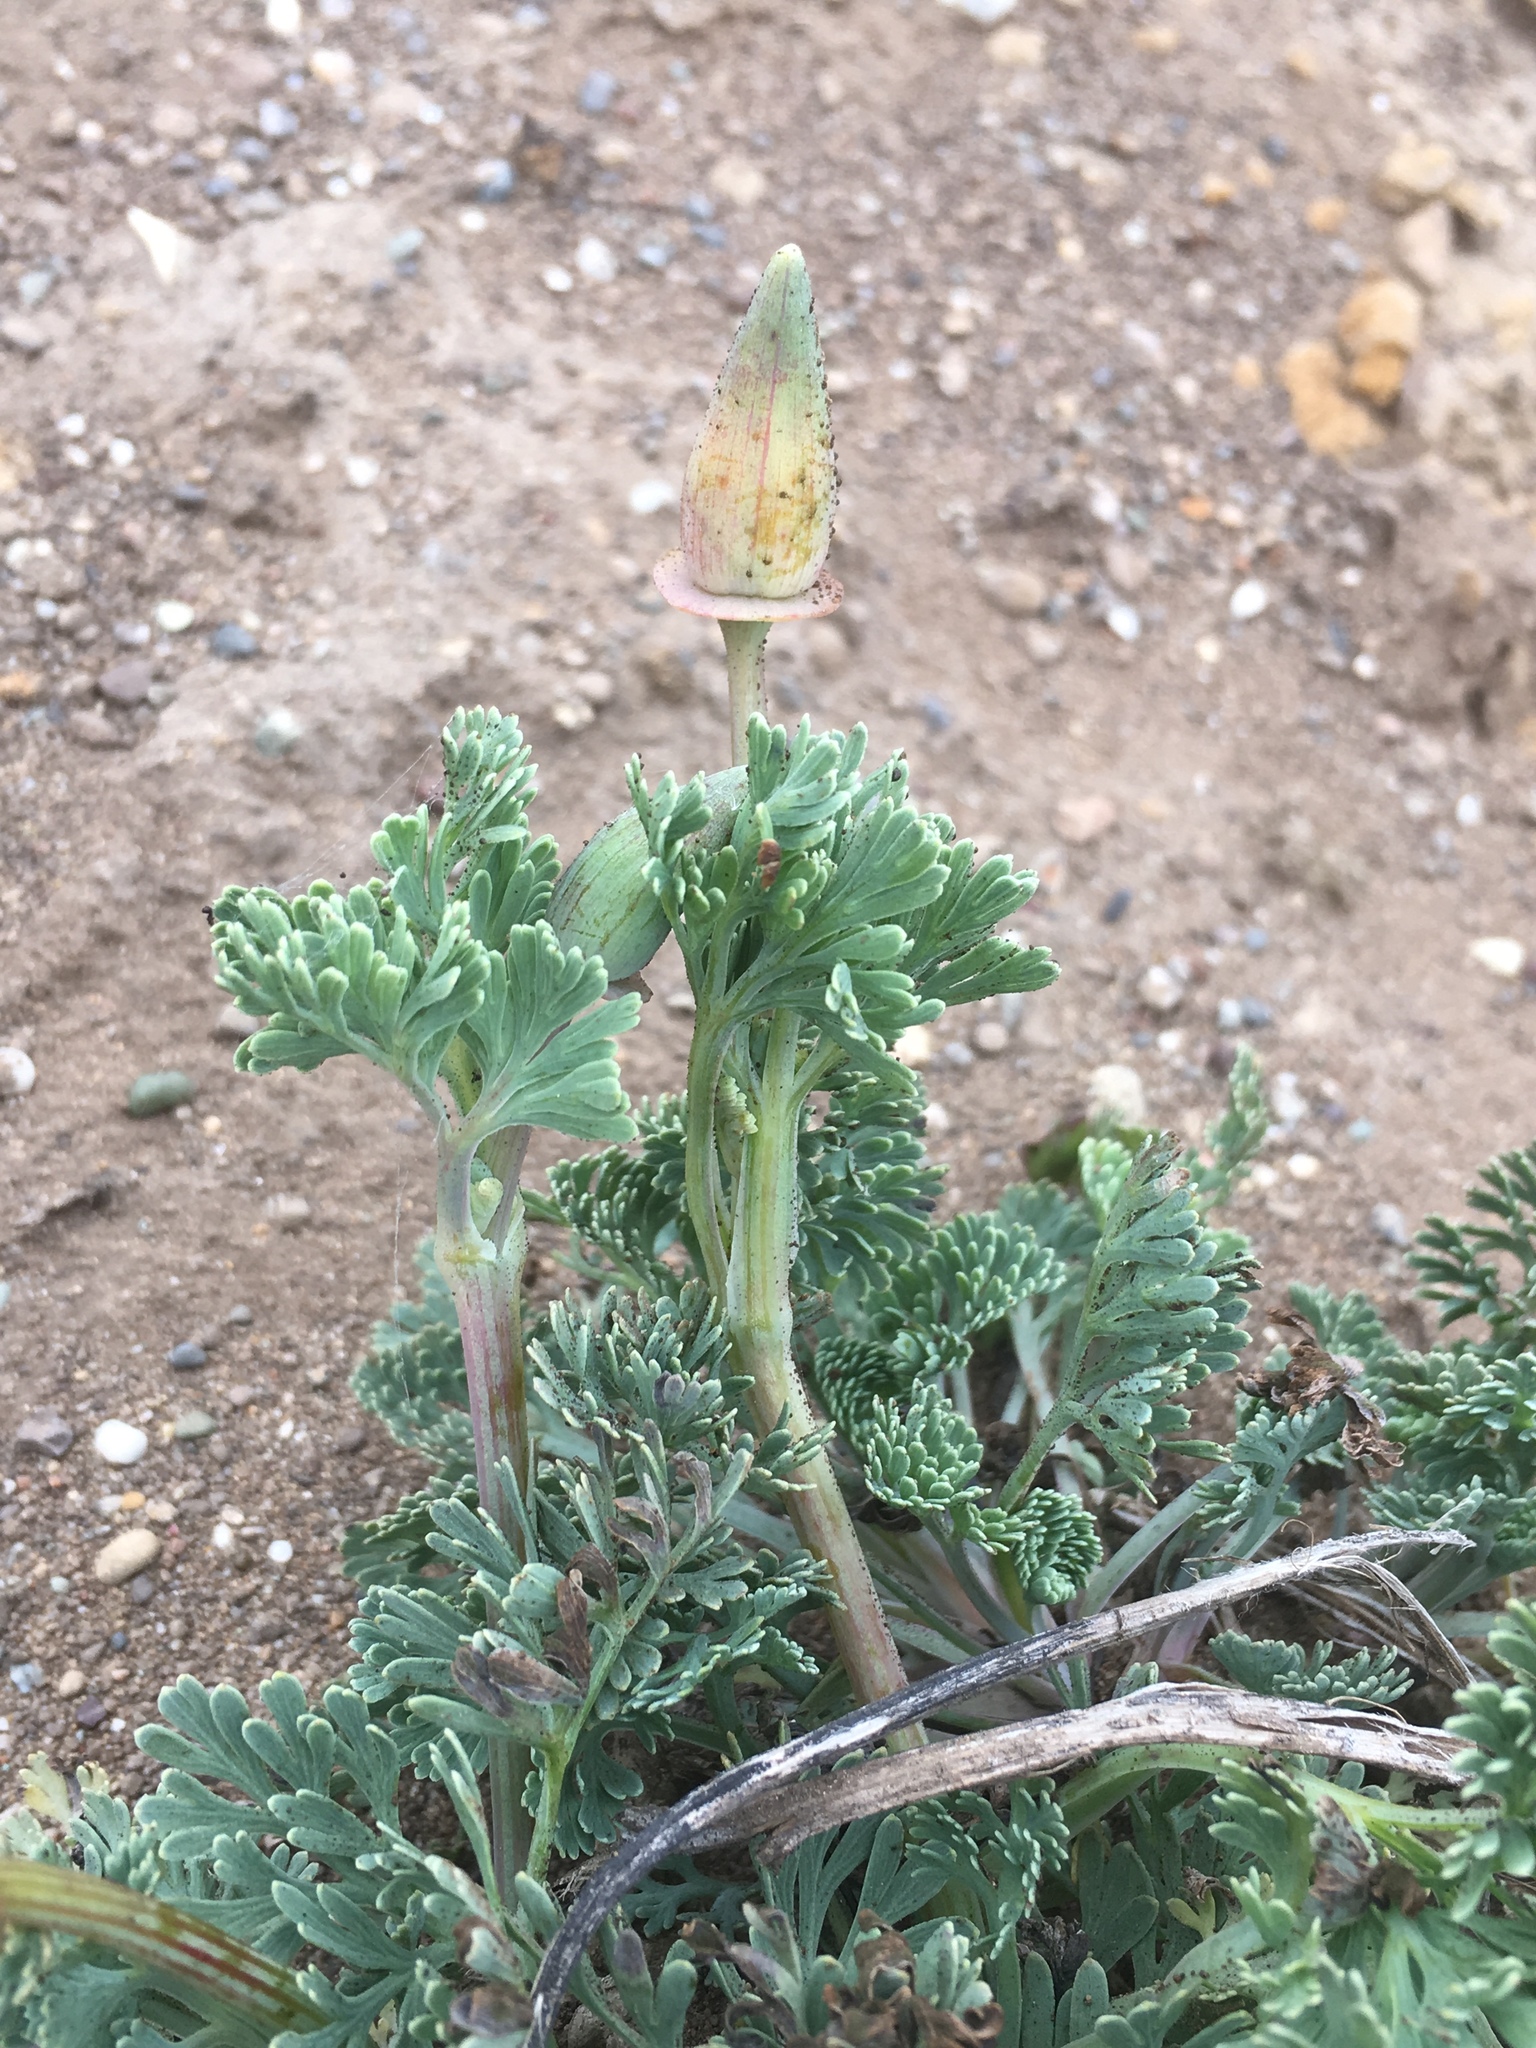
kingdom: Plantae
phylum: Tracheophyta
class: Magnoliopsida
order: Ranunculales
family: Papaveraceae
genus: Eschscholzia
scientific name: Eschscholzia californica
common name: California poppy
